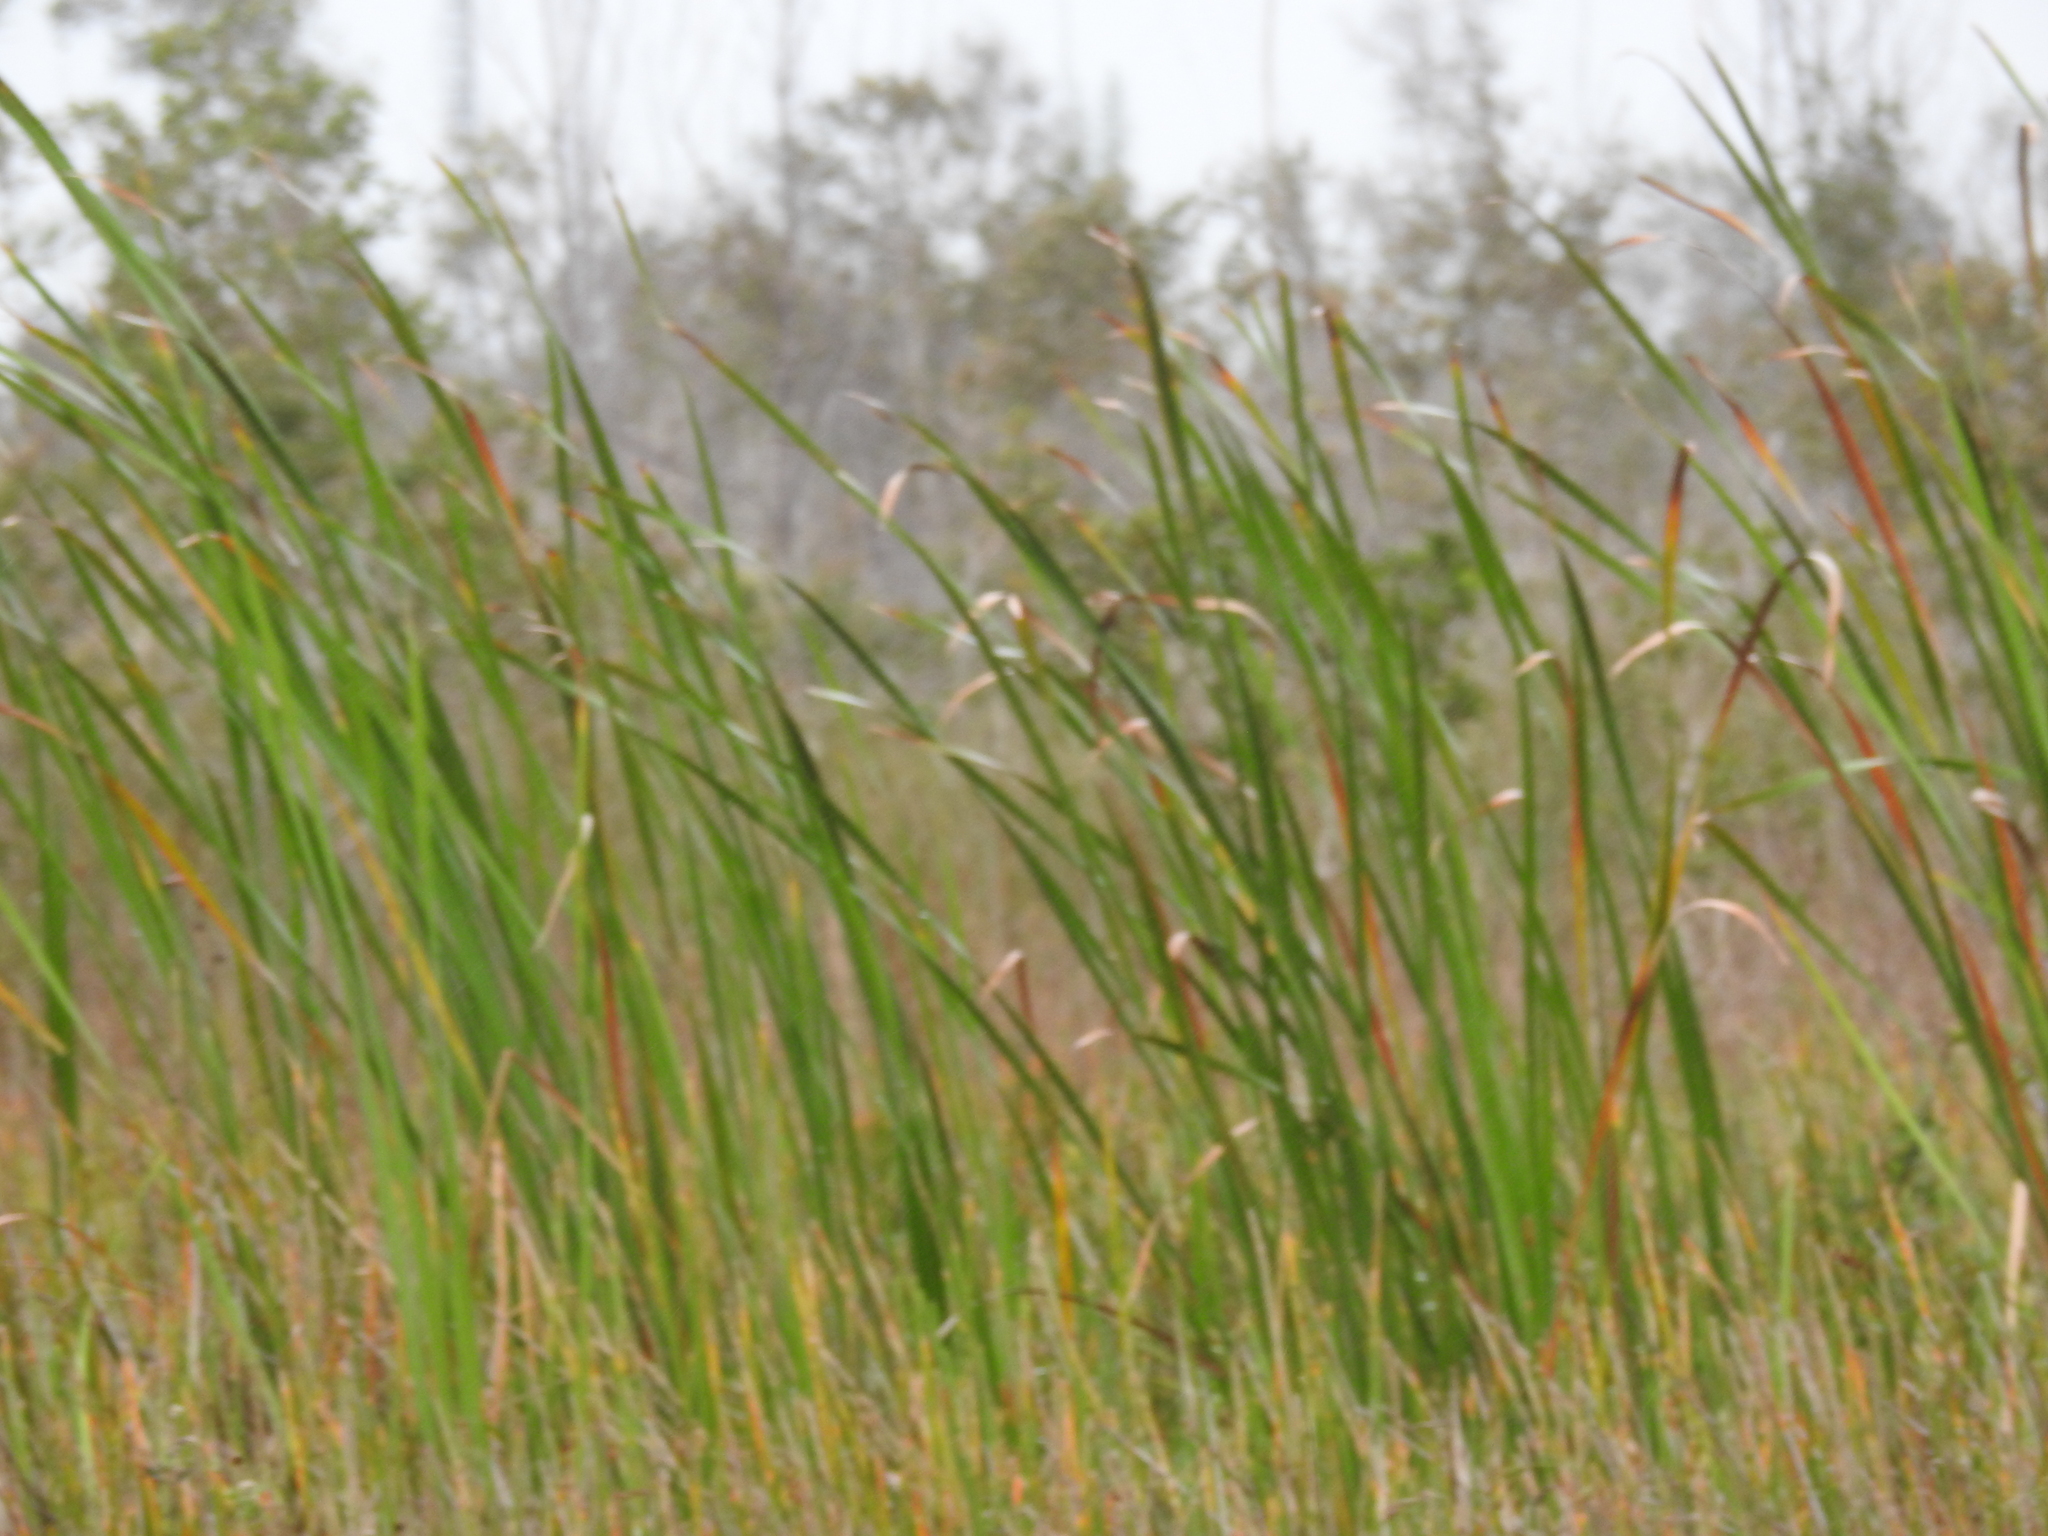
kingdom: Plantae
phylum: Tracheophyta
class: Liliopsida
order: Poales
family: Typhaceae
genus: Typha
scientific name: Typha domingensis
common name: Southern cattail
